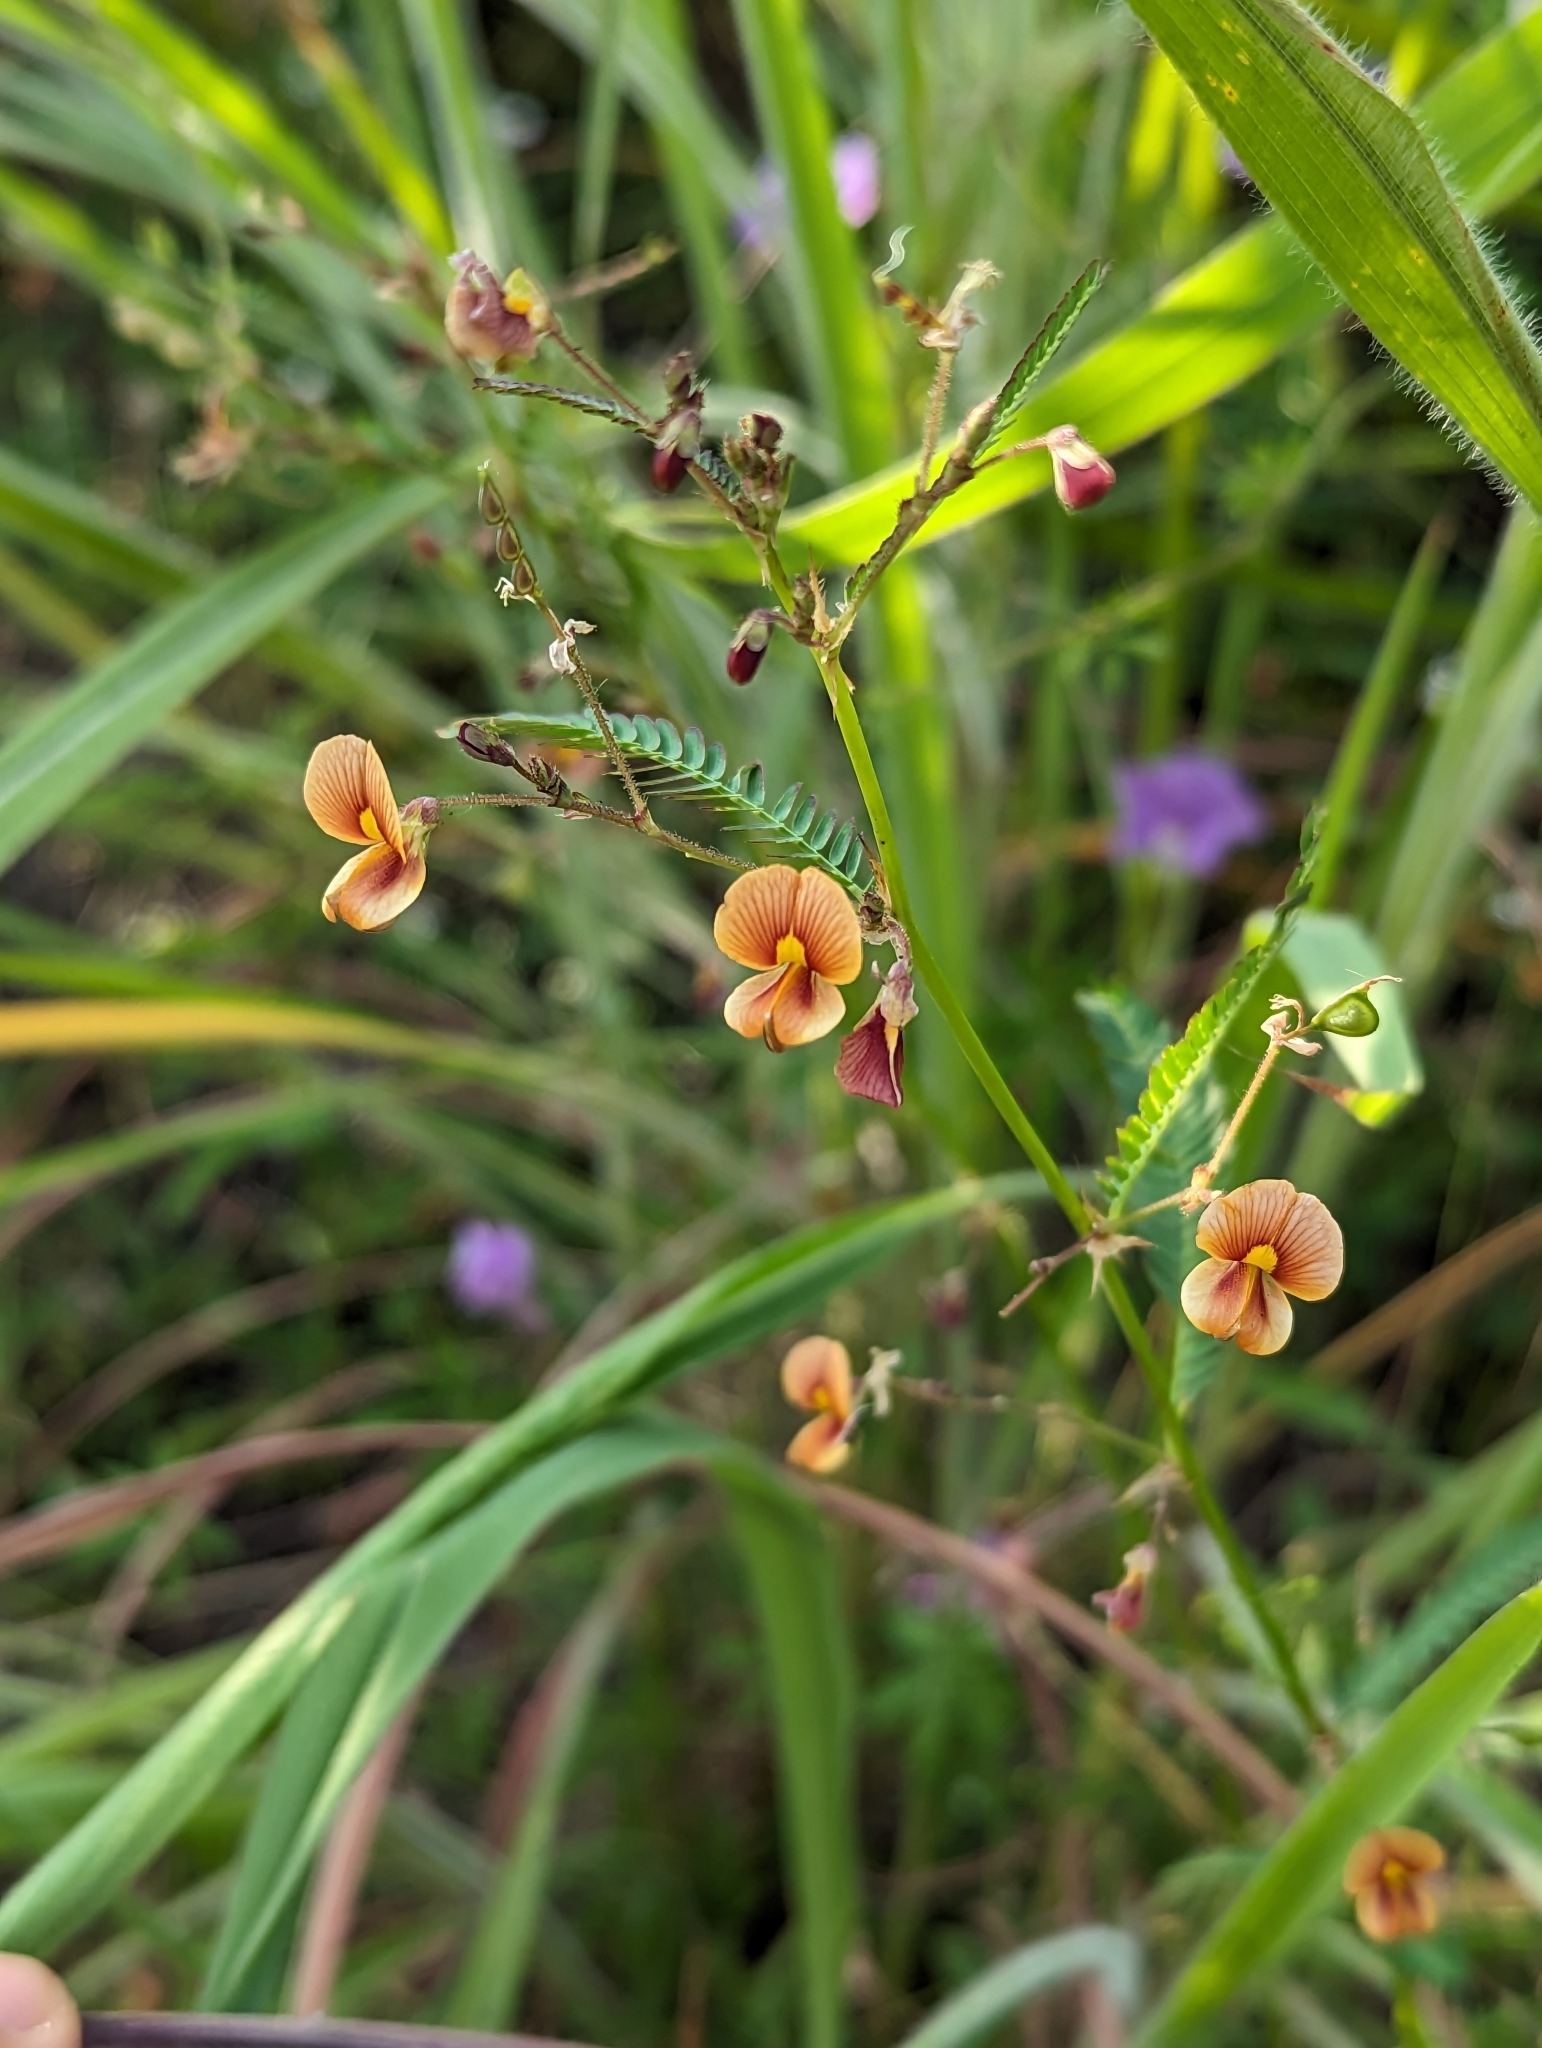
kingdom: Plantae
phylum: Tracheophyta
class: Magnoliopsida
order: Fabales
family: Fabaceae
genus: Aeschynomene
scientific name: Aeschynomene americana
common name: Joint-vetch
